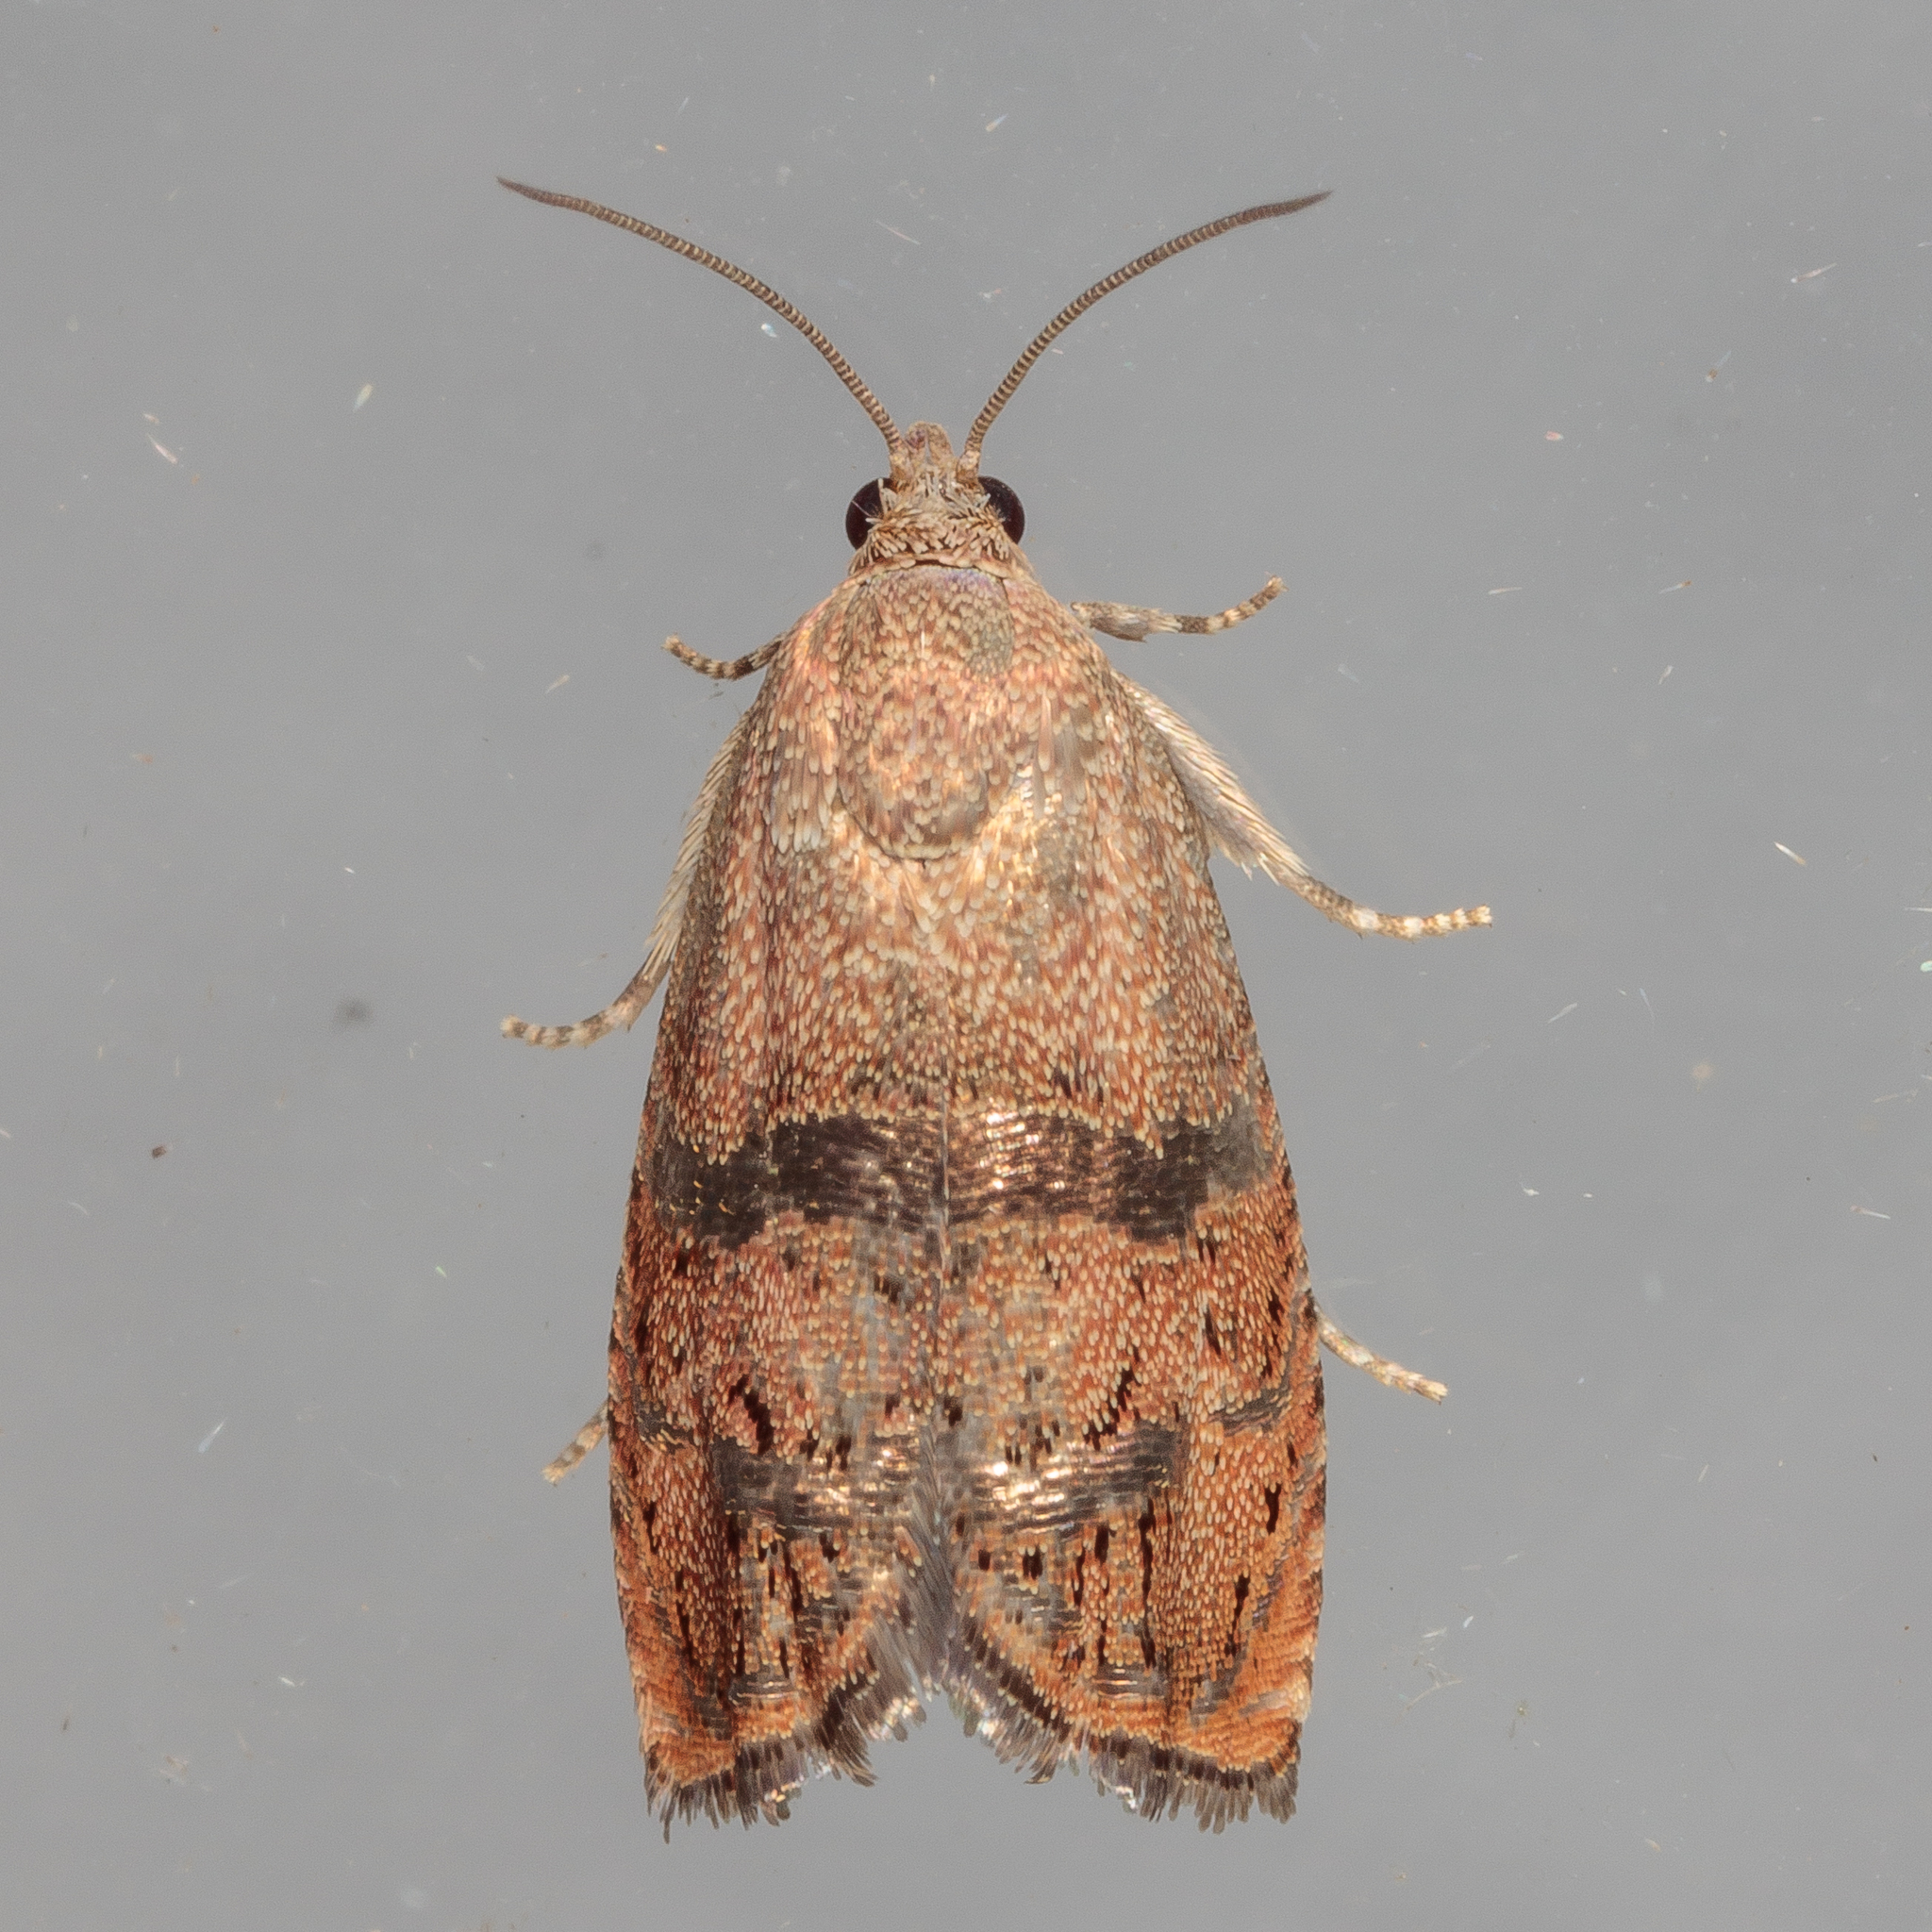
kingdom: Animalia
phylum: Arthropoda
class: Insecta
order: Lepidoptera
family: Tortricidae
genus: Cydia
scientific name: Cydia latiferreana
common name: Filbertworm moth
